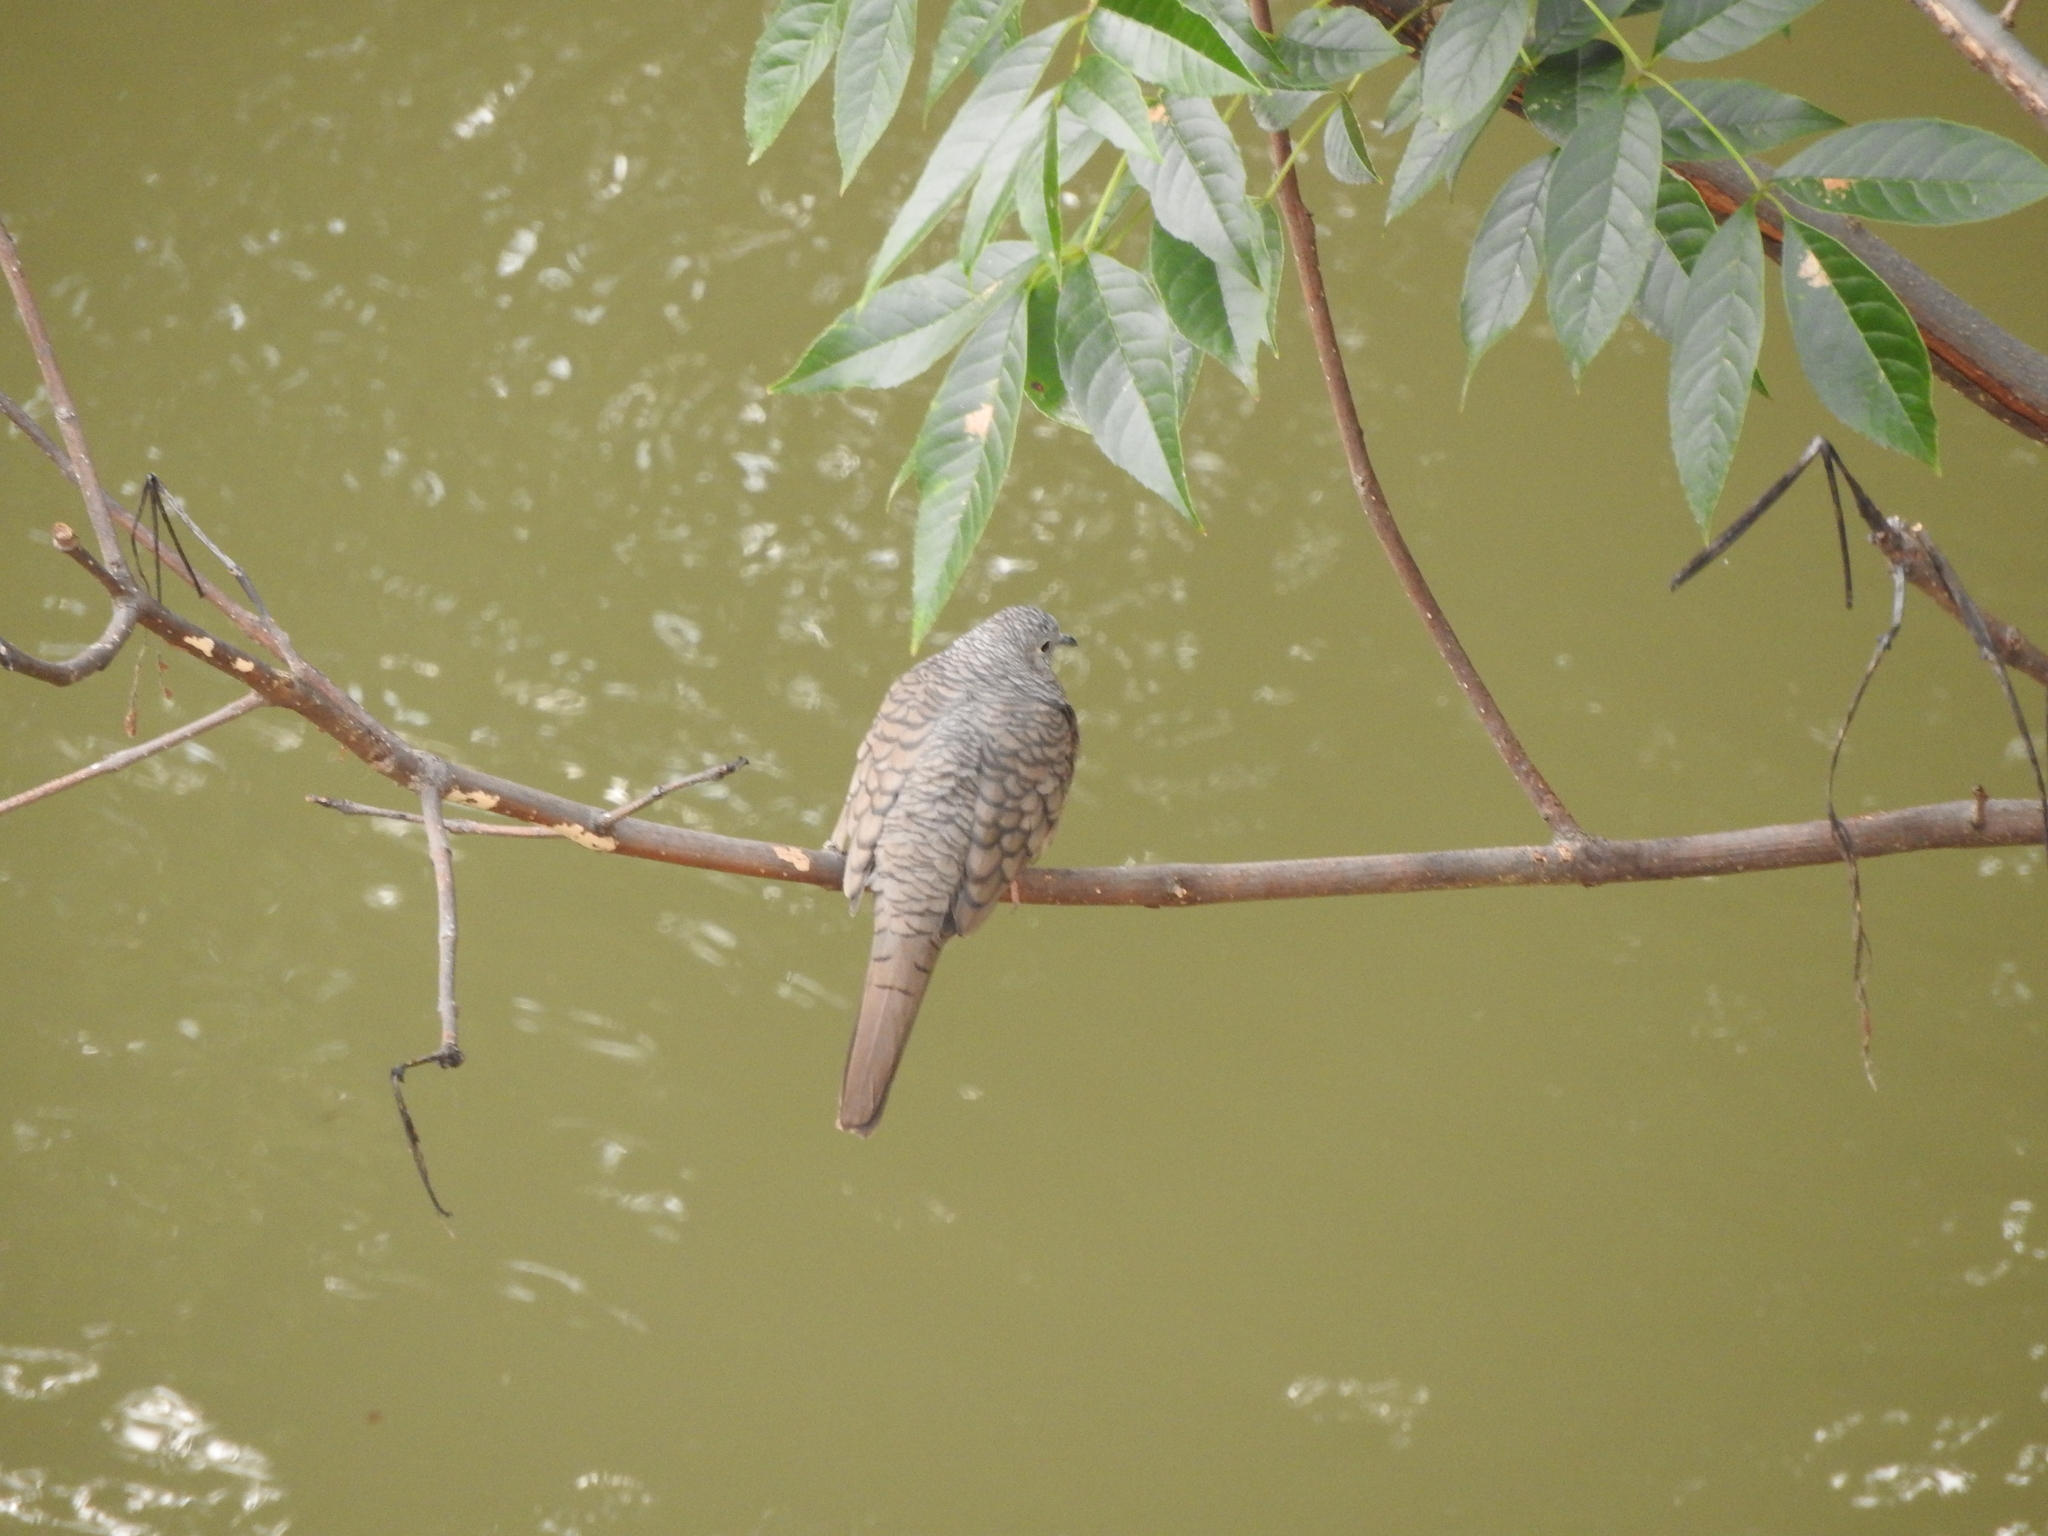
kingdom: Animalia
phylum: Chordata
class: Aves
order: Columbiformes
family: Columbidae
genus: Columbina
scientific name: Columbina inca
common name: Inca dove
